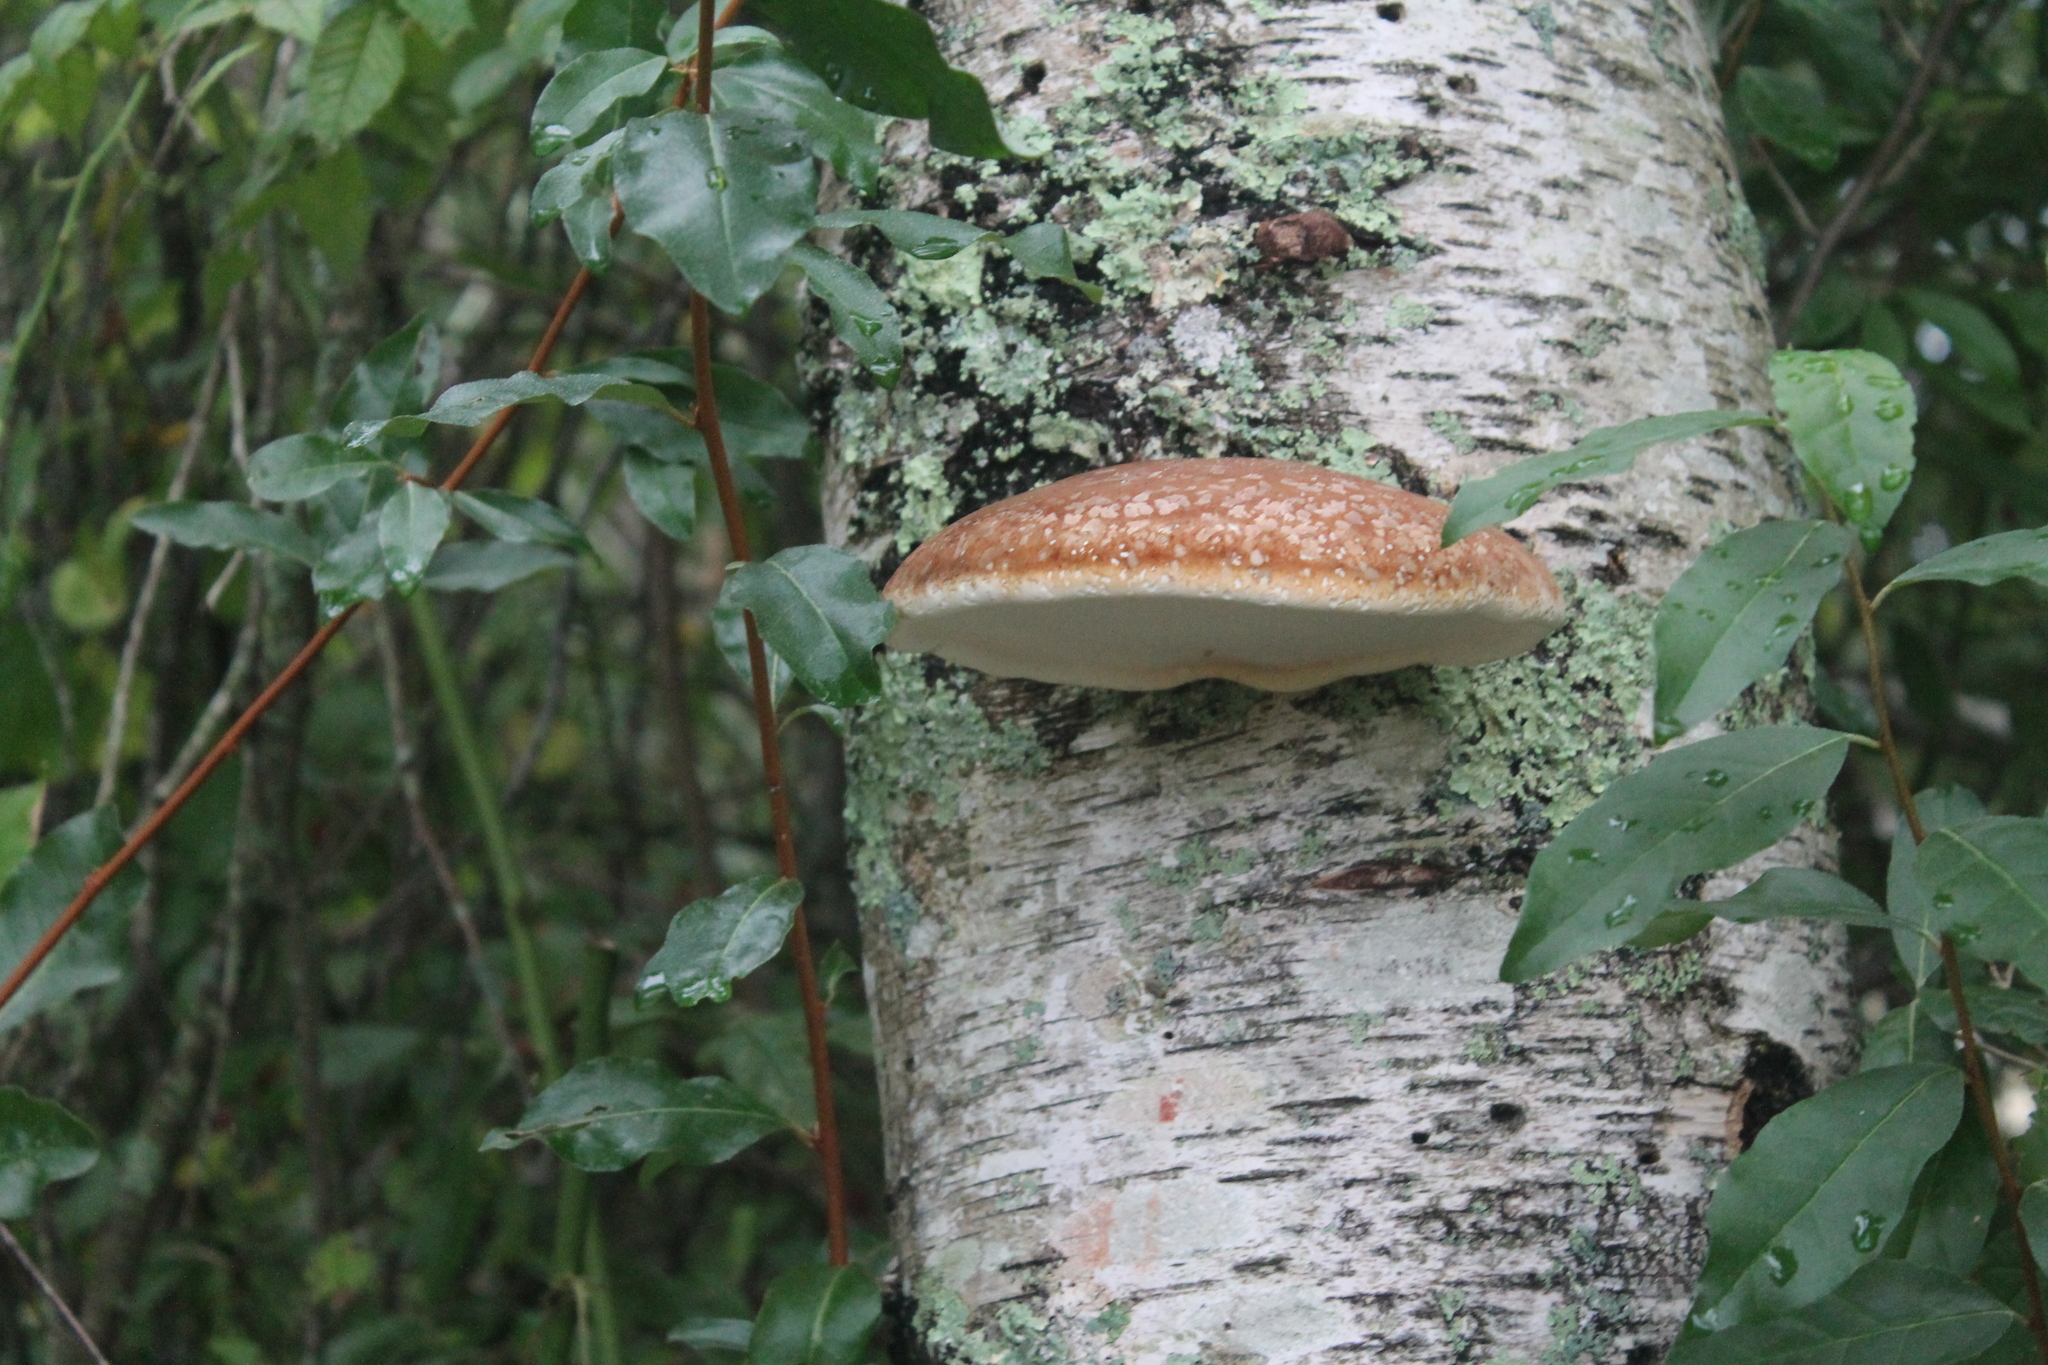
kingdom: Fungi
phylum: Basidiomycota
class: Agaricomycetes
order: Polyporales
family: Fomitopsidaceae
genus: Fomitopsis
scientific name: Fomitopsis betulina
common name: Birch polypore
